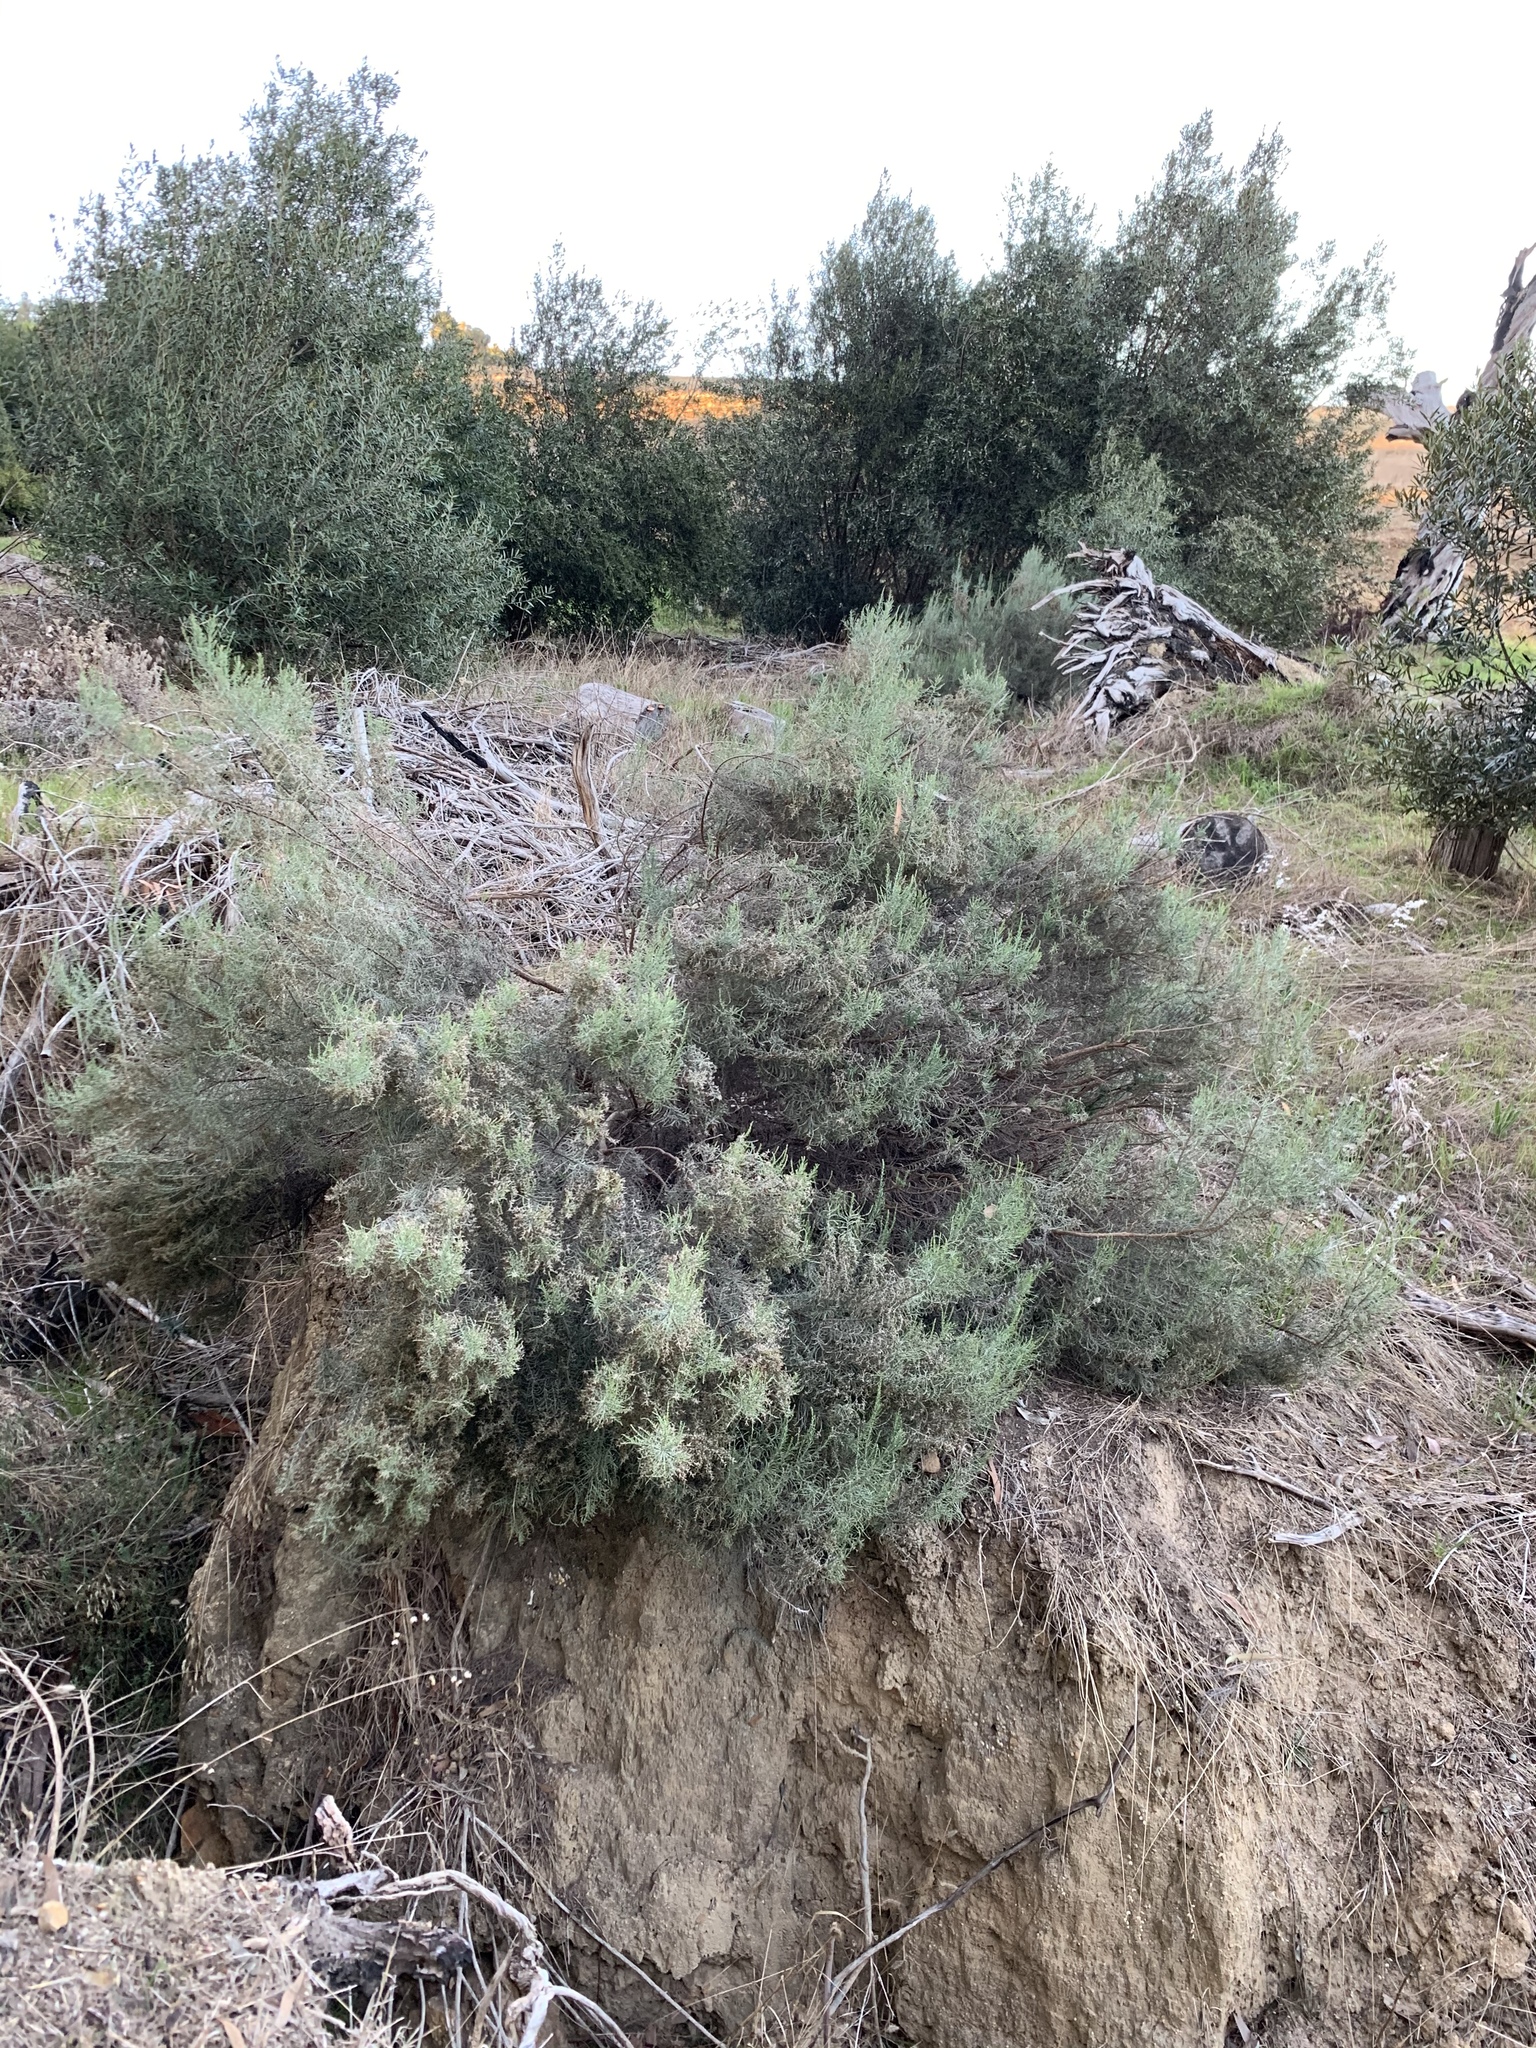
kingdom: Plantae
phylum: Tracheophyta
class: Magnoliopsida
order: Asterales
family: Asteraceae
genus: Dicerothamnus
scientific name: Dicerothamnus rhinocerotis
